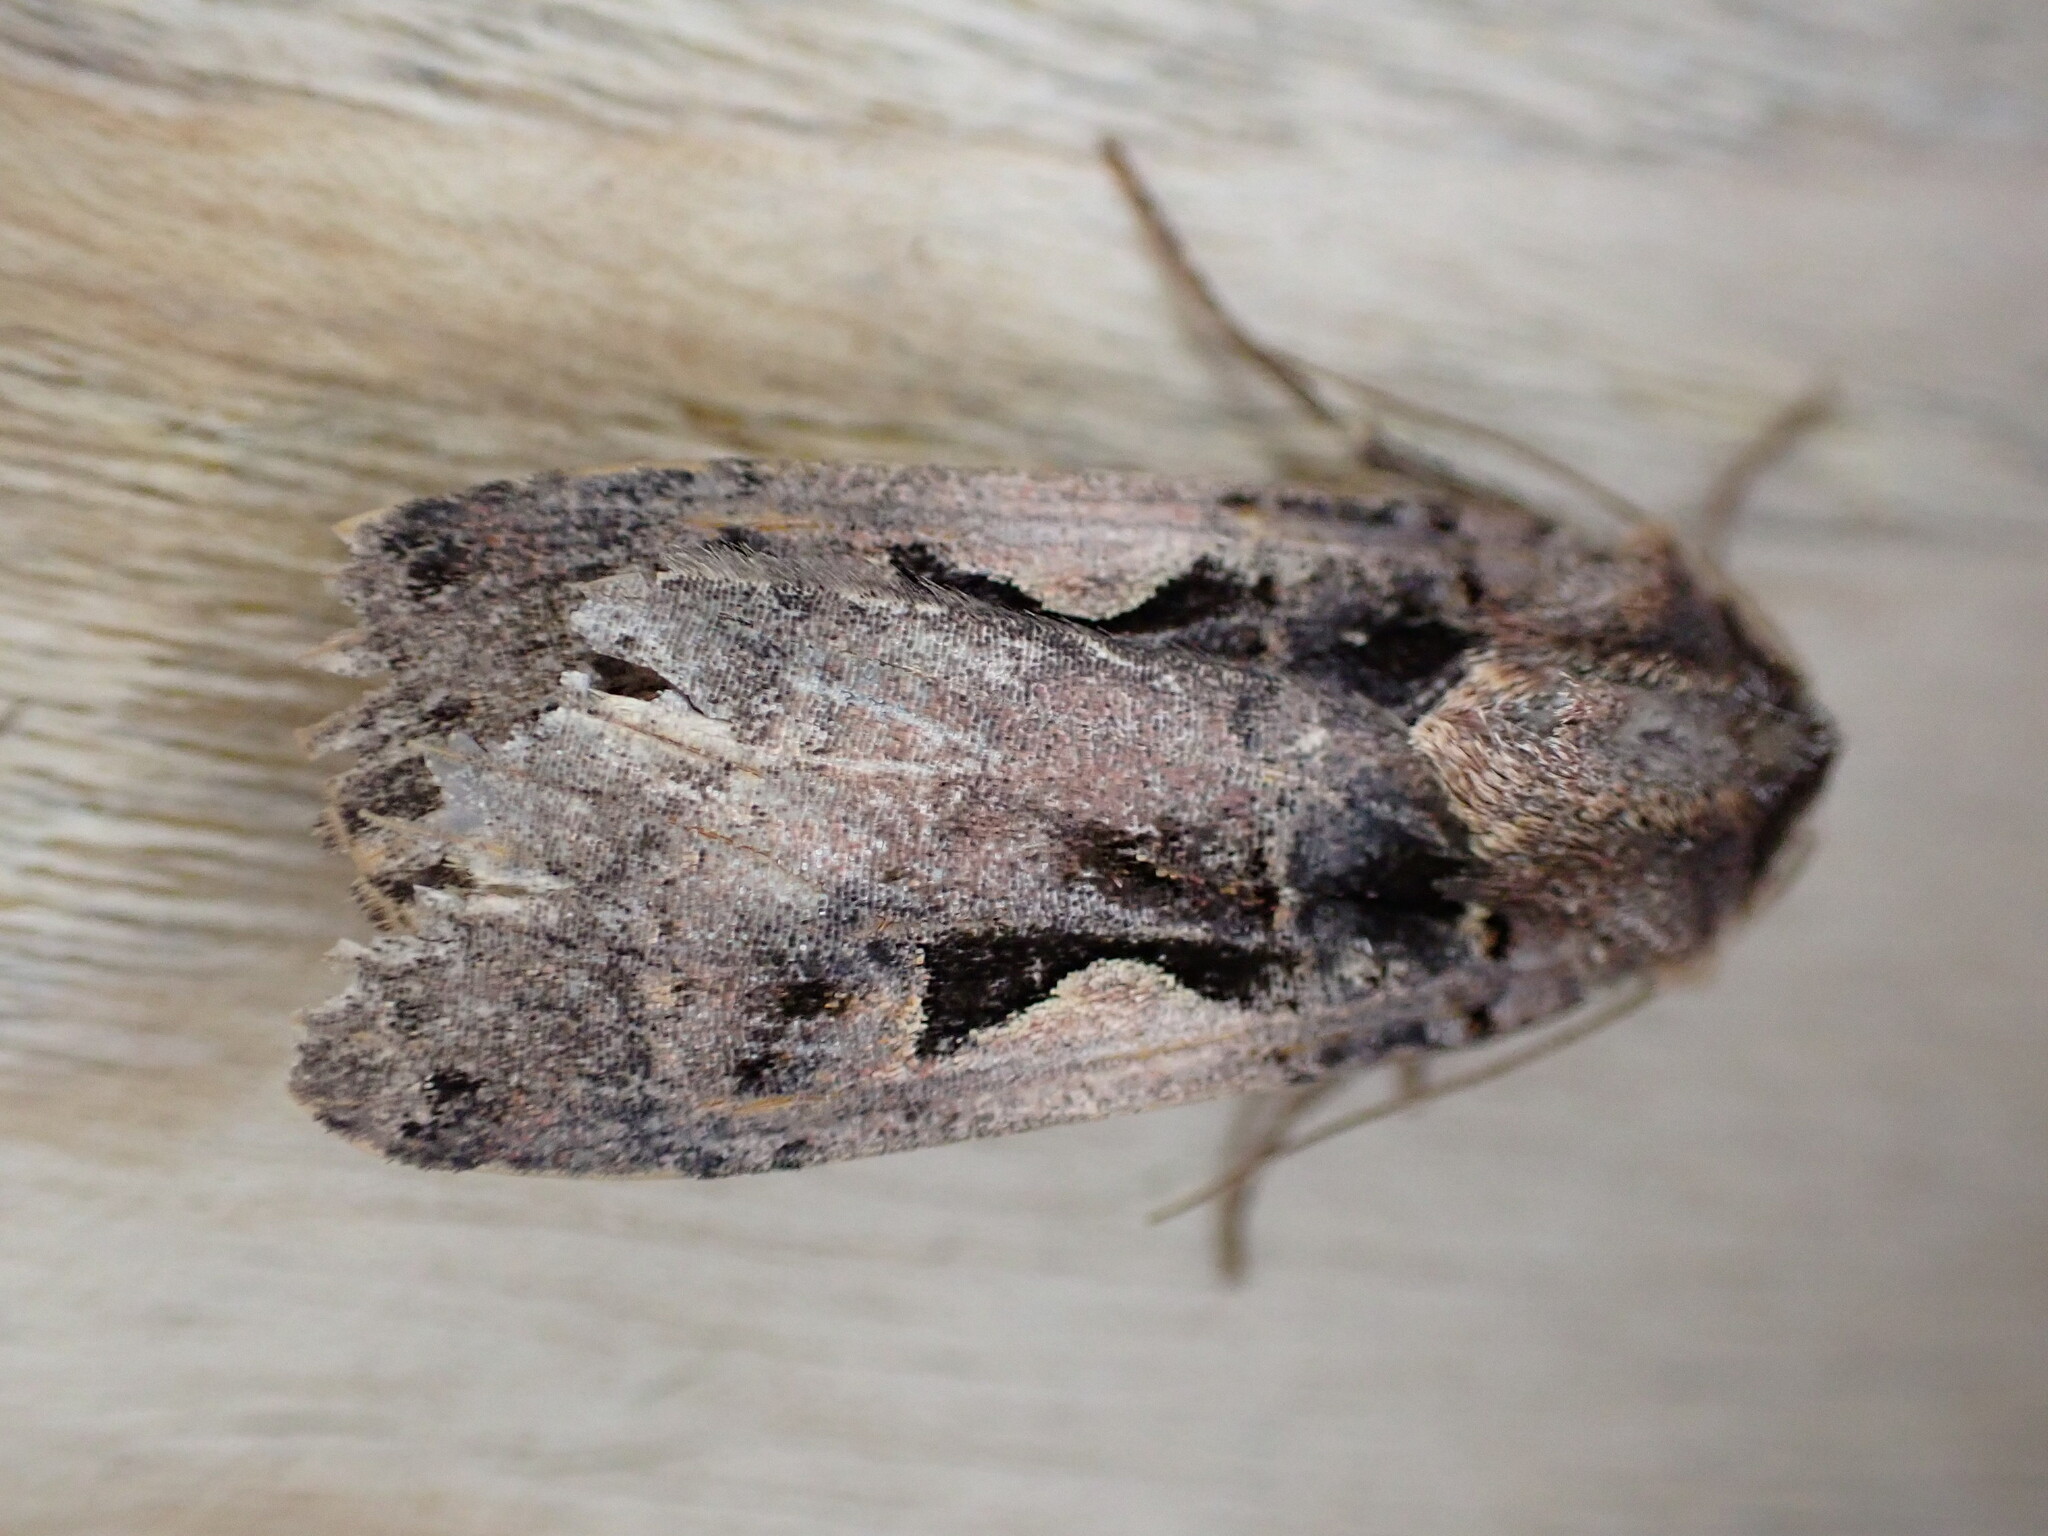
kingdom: Animalia
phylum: Arthropoda
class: Insecta
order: Lepidoptera
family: Noctuidae
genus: Xestia
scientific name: Xestia c-nigrum
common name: Setaceous hebrew character
